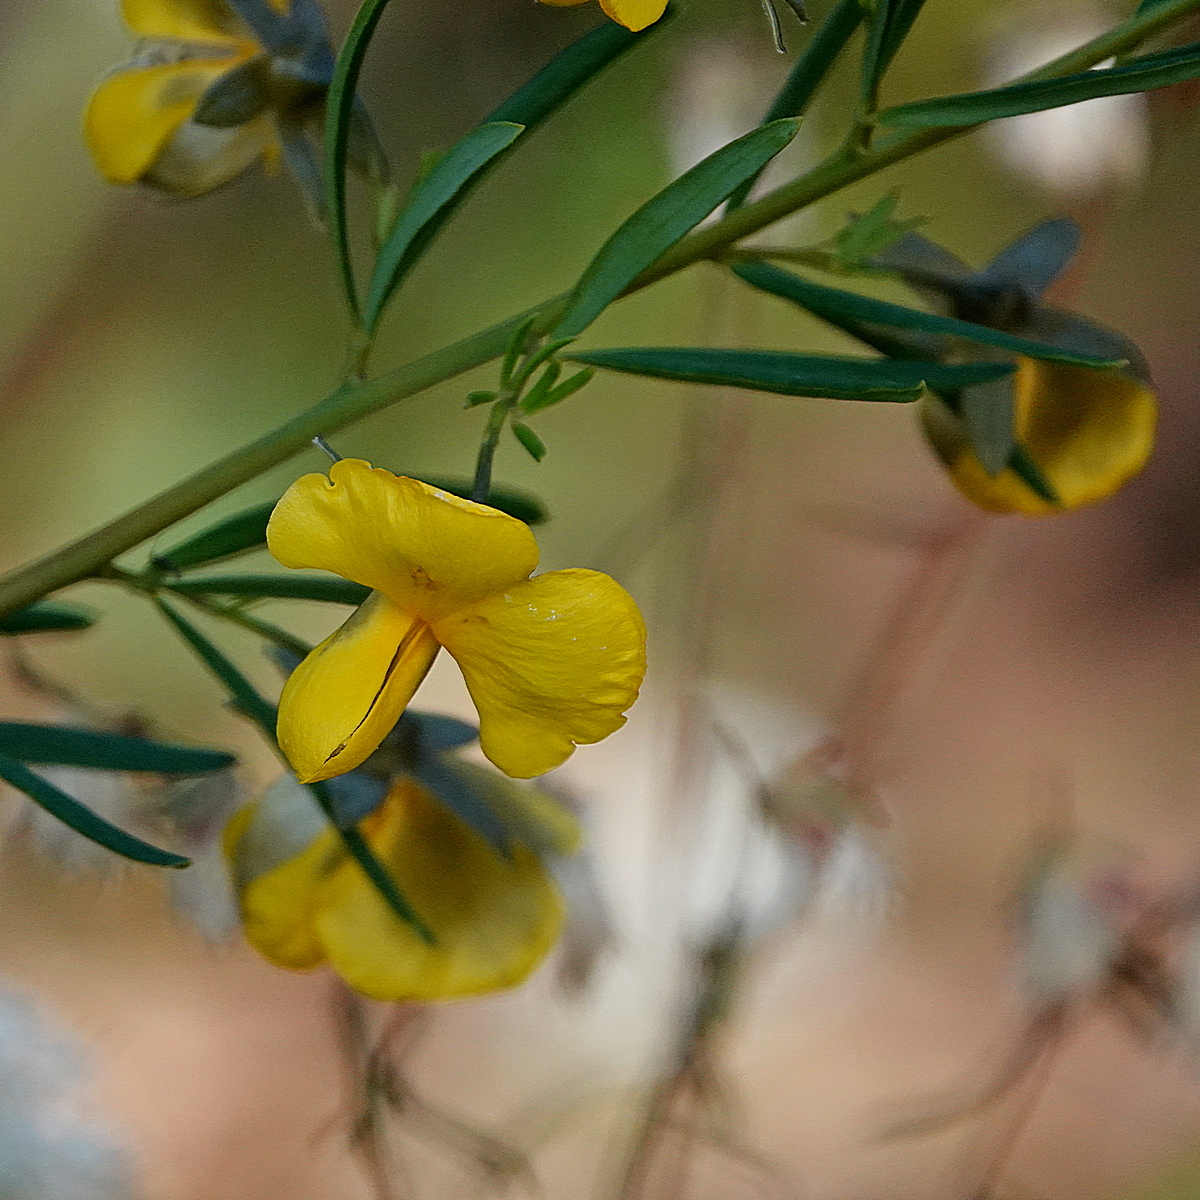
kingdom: Plantae
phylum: Tracheophyta
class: Magnoliopsida
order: Fabales
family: Fabaceae
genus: Gompholobium
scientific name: Gompholobium latifolium
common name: Broadleaf wedge-pea
